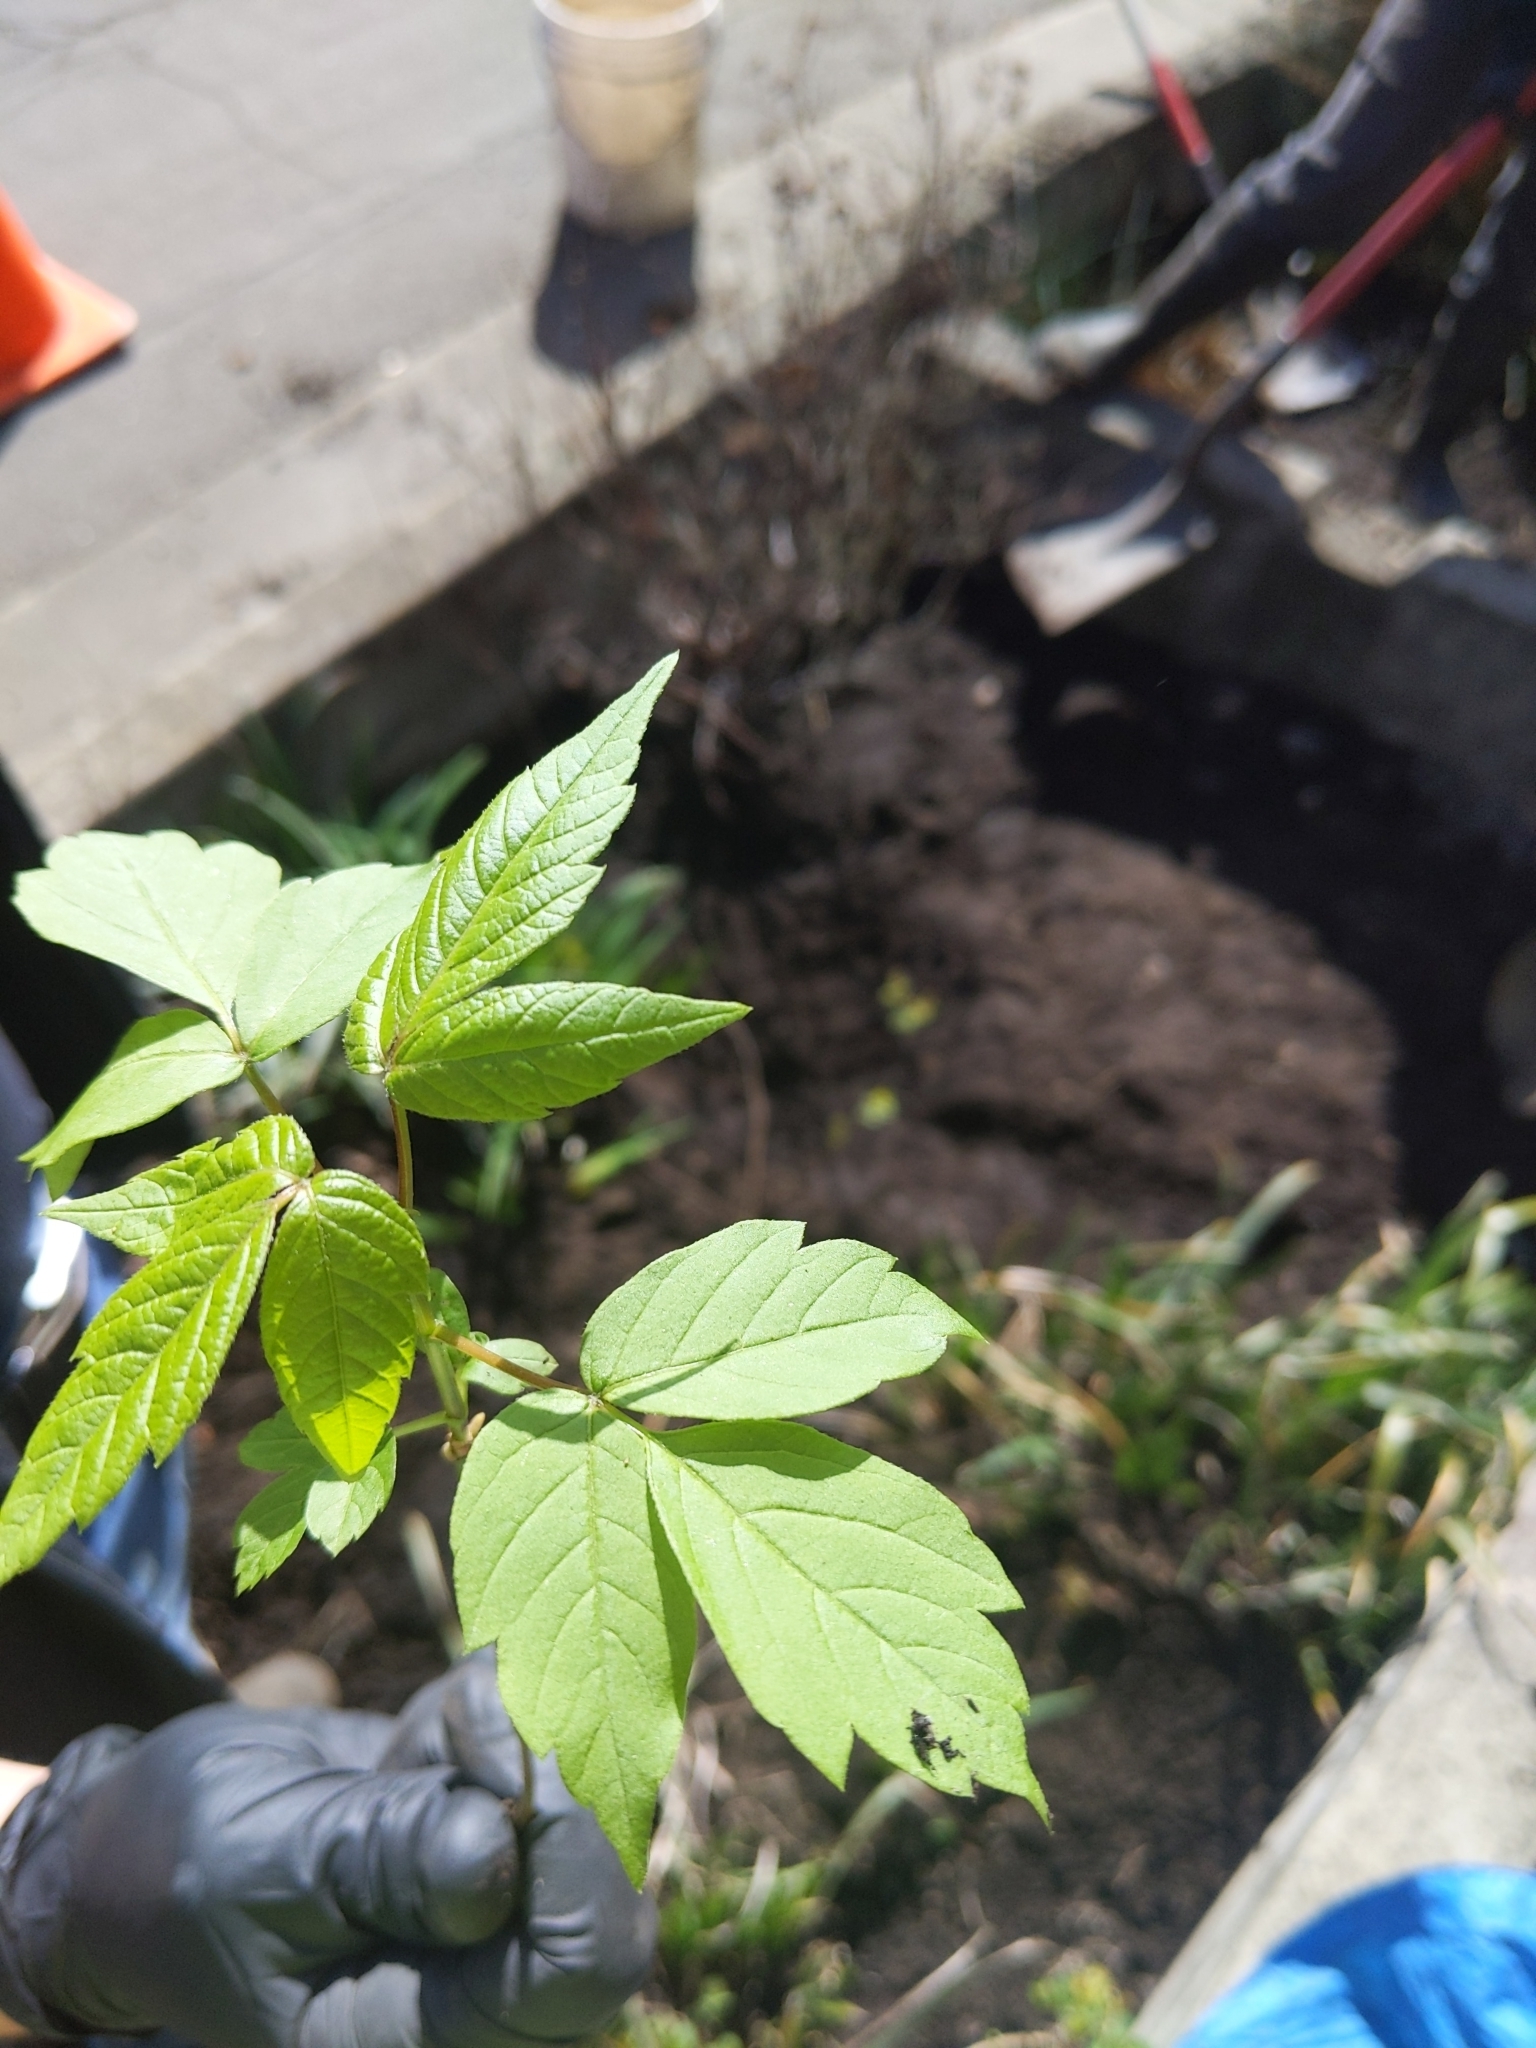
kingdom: Plantae
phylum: Tracheophyta
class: Magnoliopsida
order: Sapindales
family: Sapindaceae
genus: Acer
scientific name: Acer negundo
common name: Ashleaf maple
